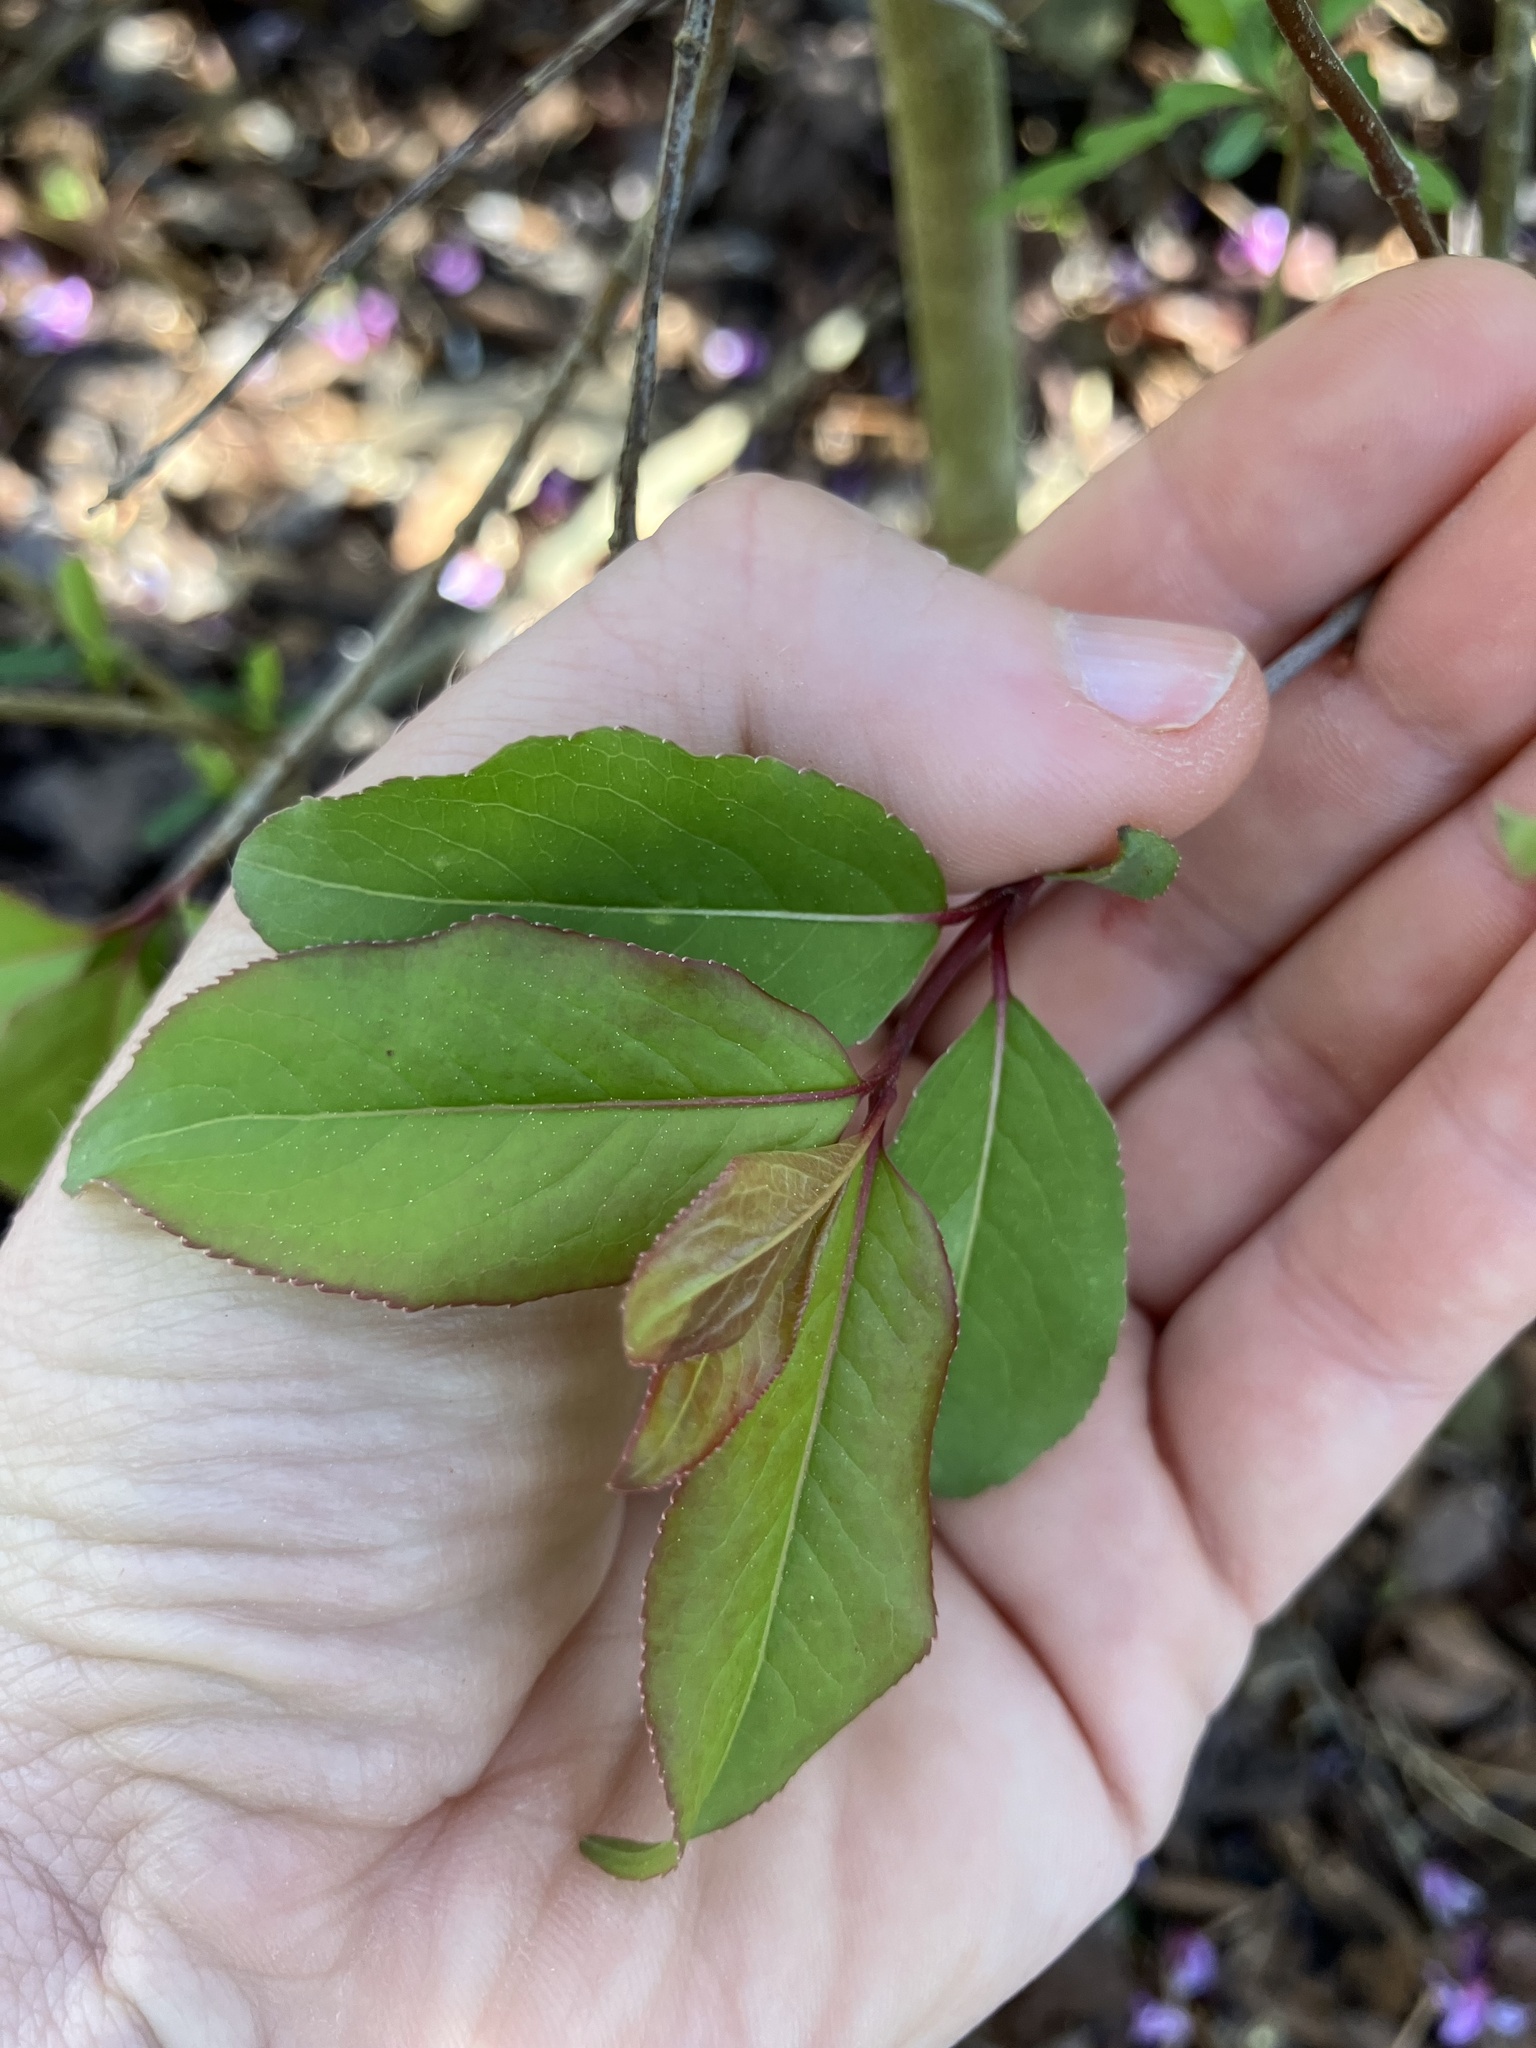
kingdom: Plantae
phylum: Tracheophyta
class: Magnoliopsida
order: Dipsacales
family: Viburnaceae
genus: Viburnum
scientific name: Viburnum prunifolium
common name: Black haw
